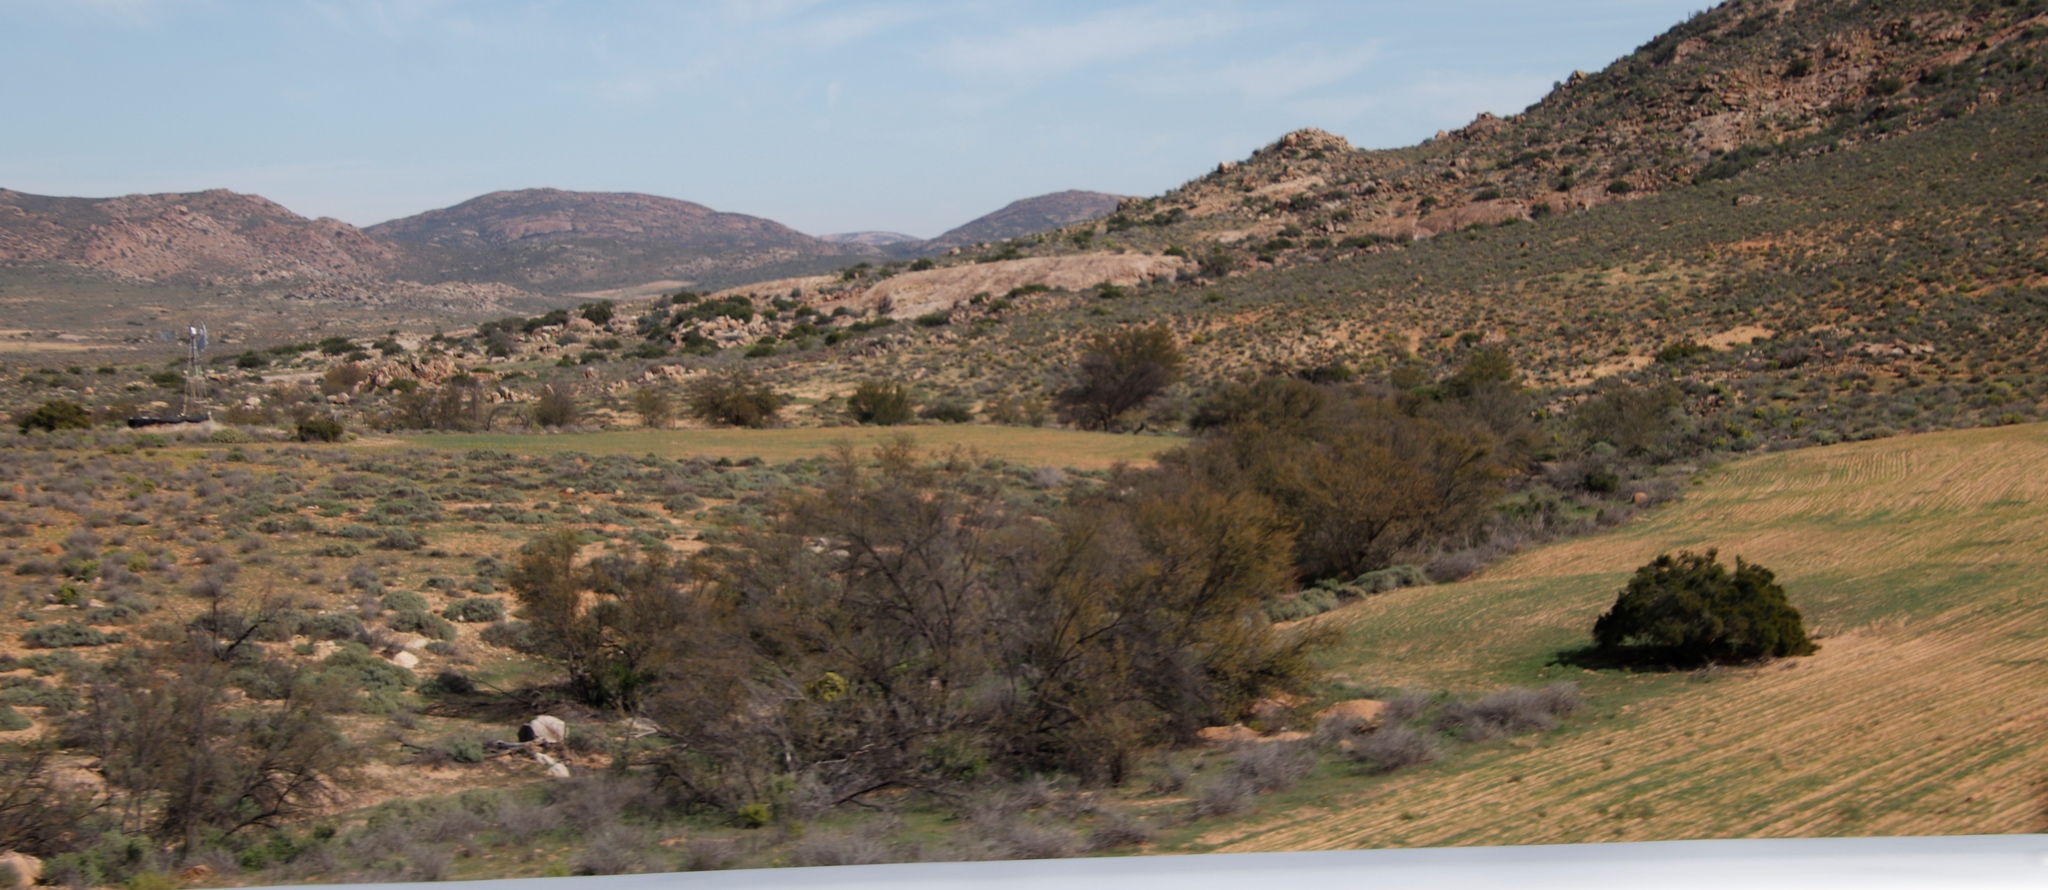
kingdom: Plantae
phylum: Tracheophyta
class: Magnoliopsida
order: Fabales
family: Fabaceae
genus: Vachellia
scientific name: Vachellia karroo
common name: Sweet thorn
